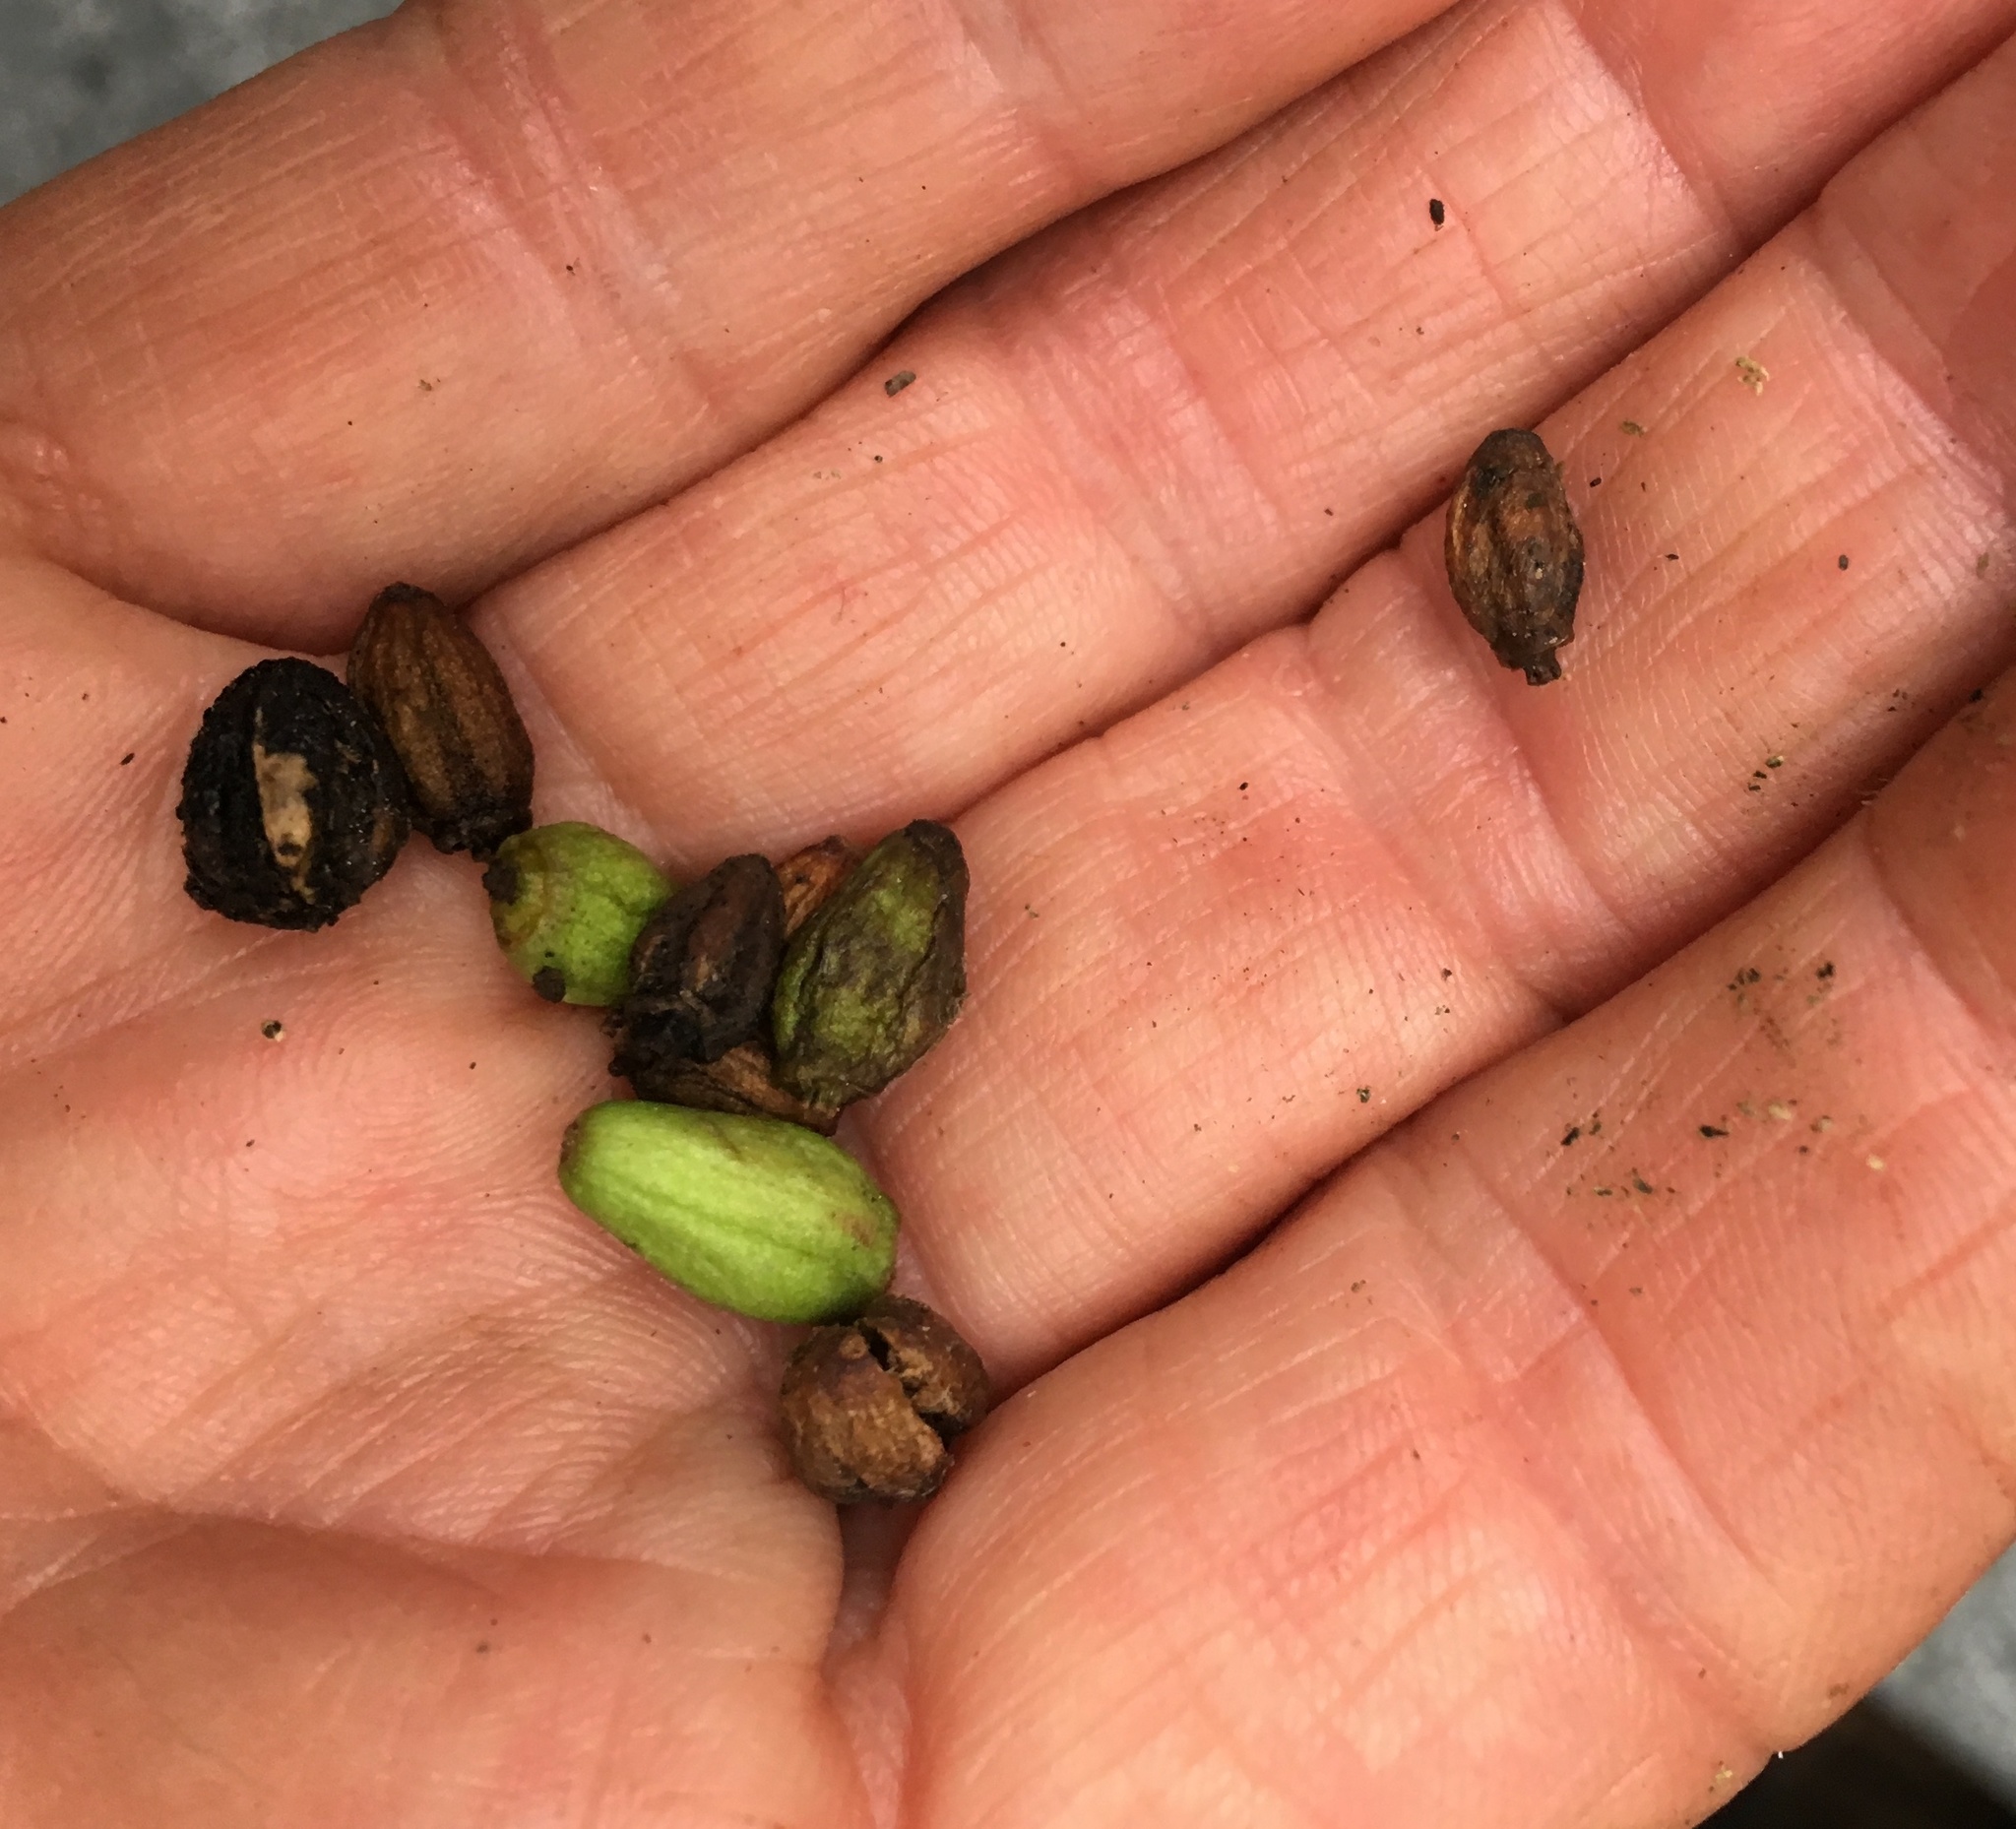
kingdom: Plantae
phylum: Tracheophyta
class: Magnoliopsida
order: Apiales
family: Araliaceae
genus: Pseudopanax
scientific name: Pseudopanax lessonii
